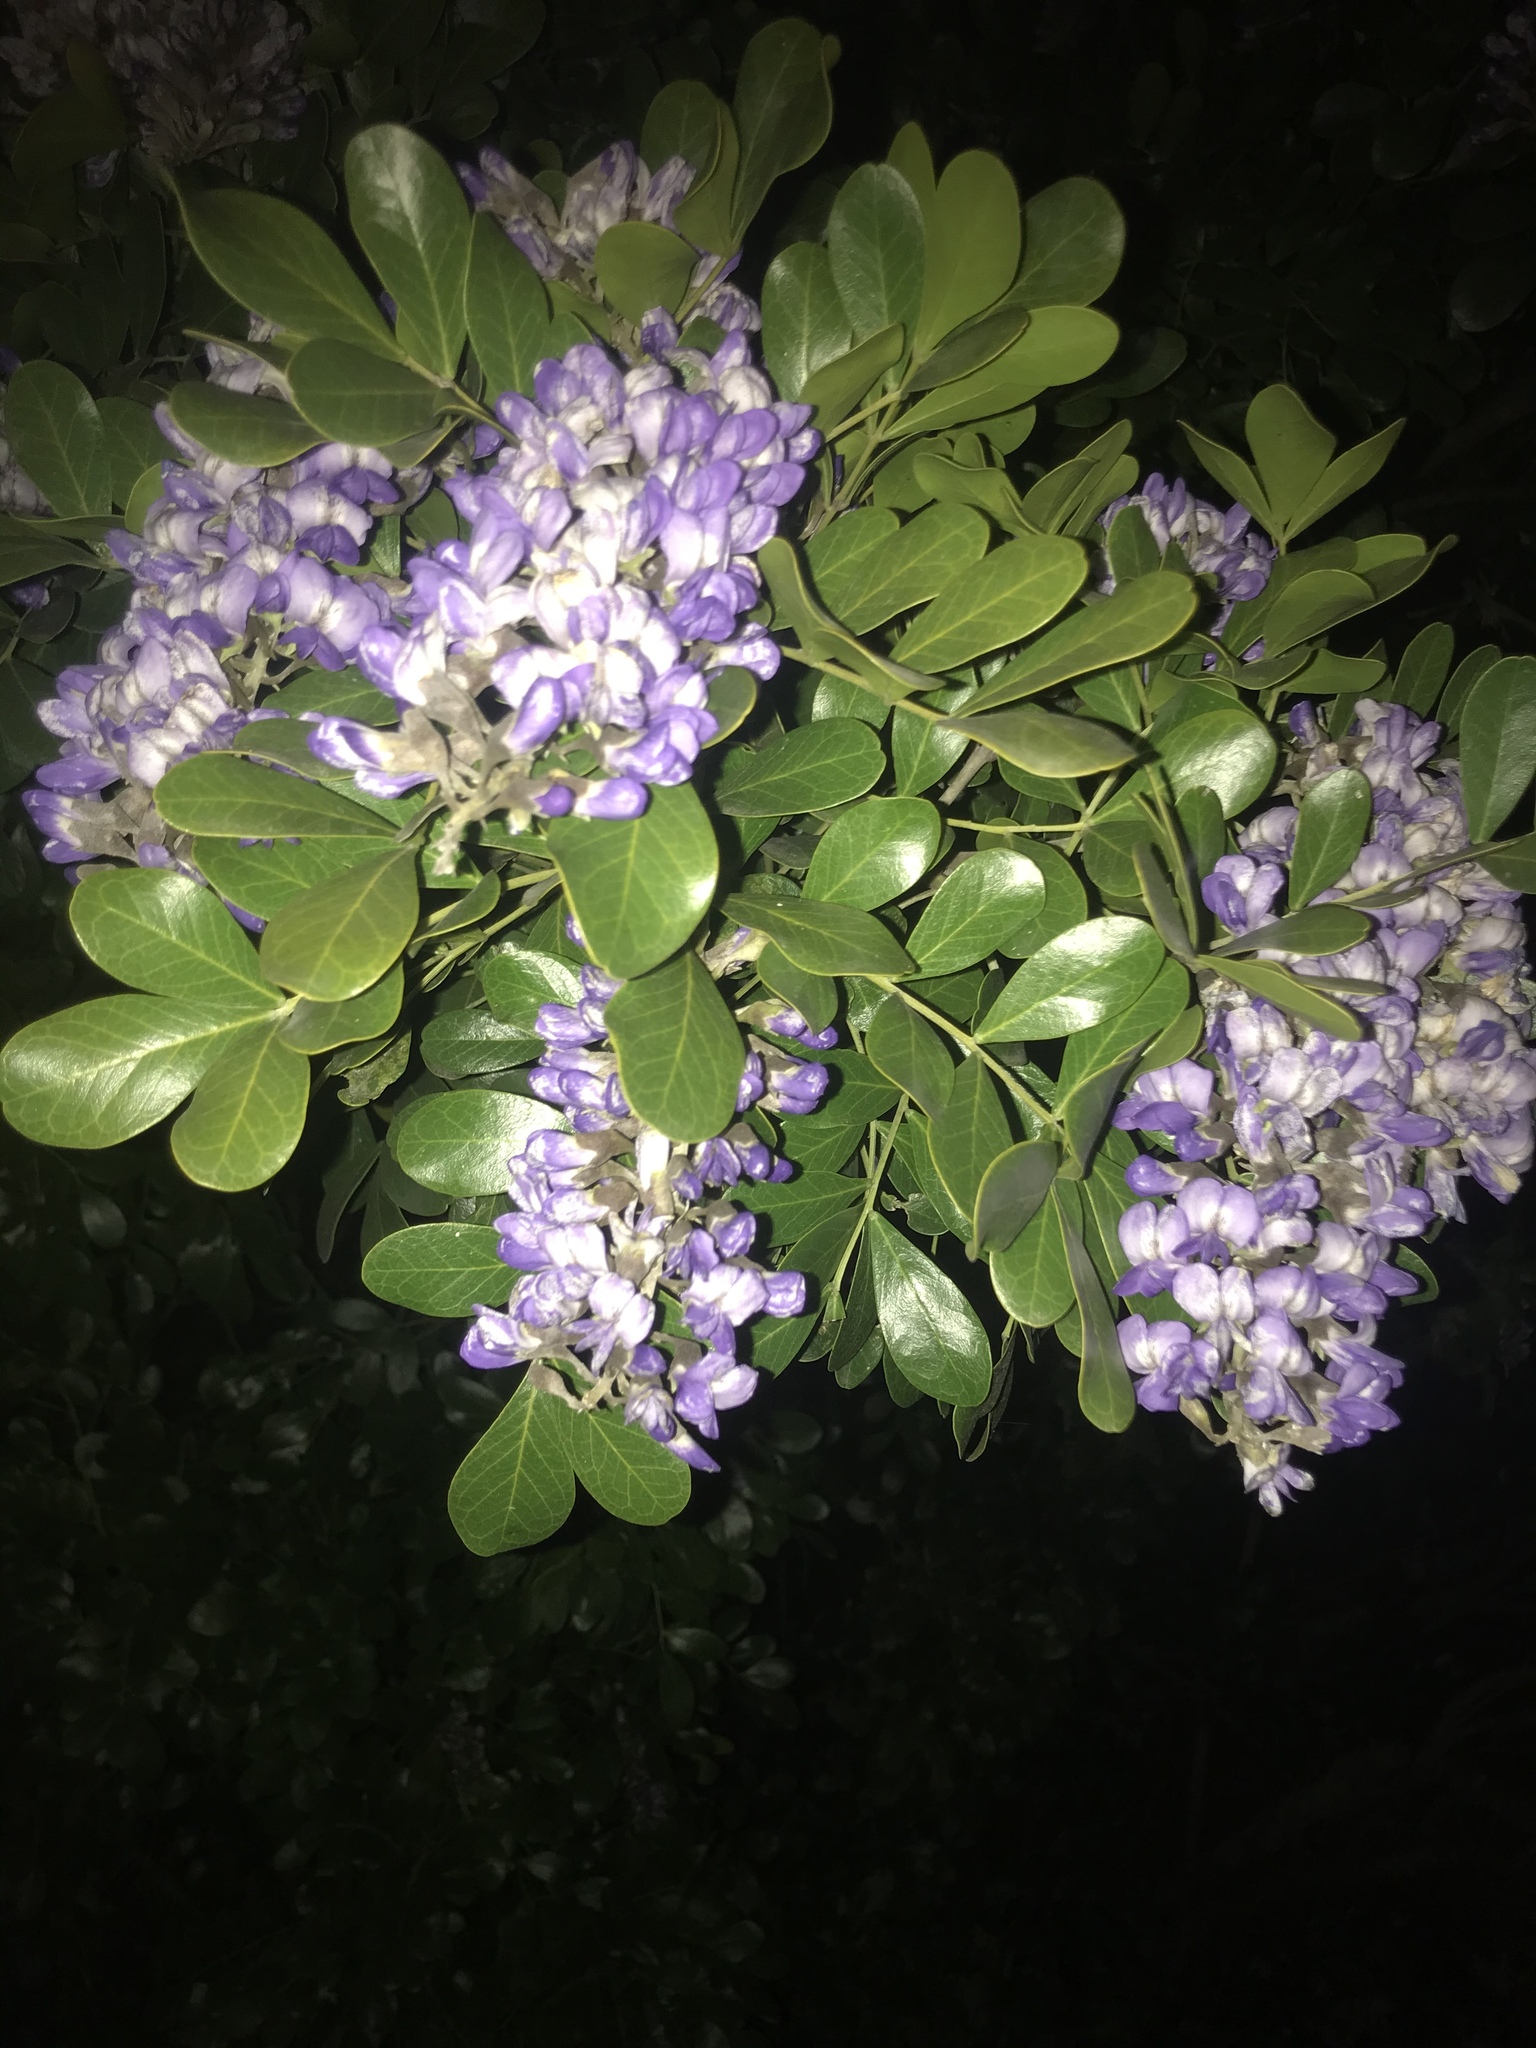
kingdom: Plantae
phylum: Tracheophyta
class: Magnoliopsida
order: Fabales
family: Fabaceae
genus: Dermatophyllum
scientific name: Dermatophyllum secundiflorum
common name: Texas-mountain-laurel
